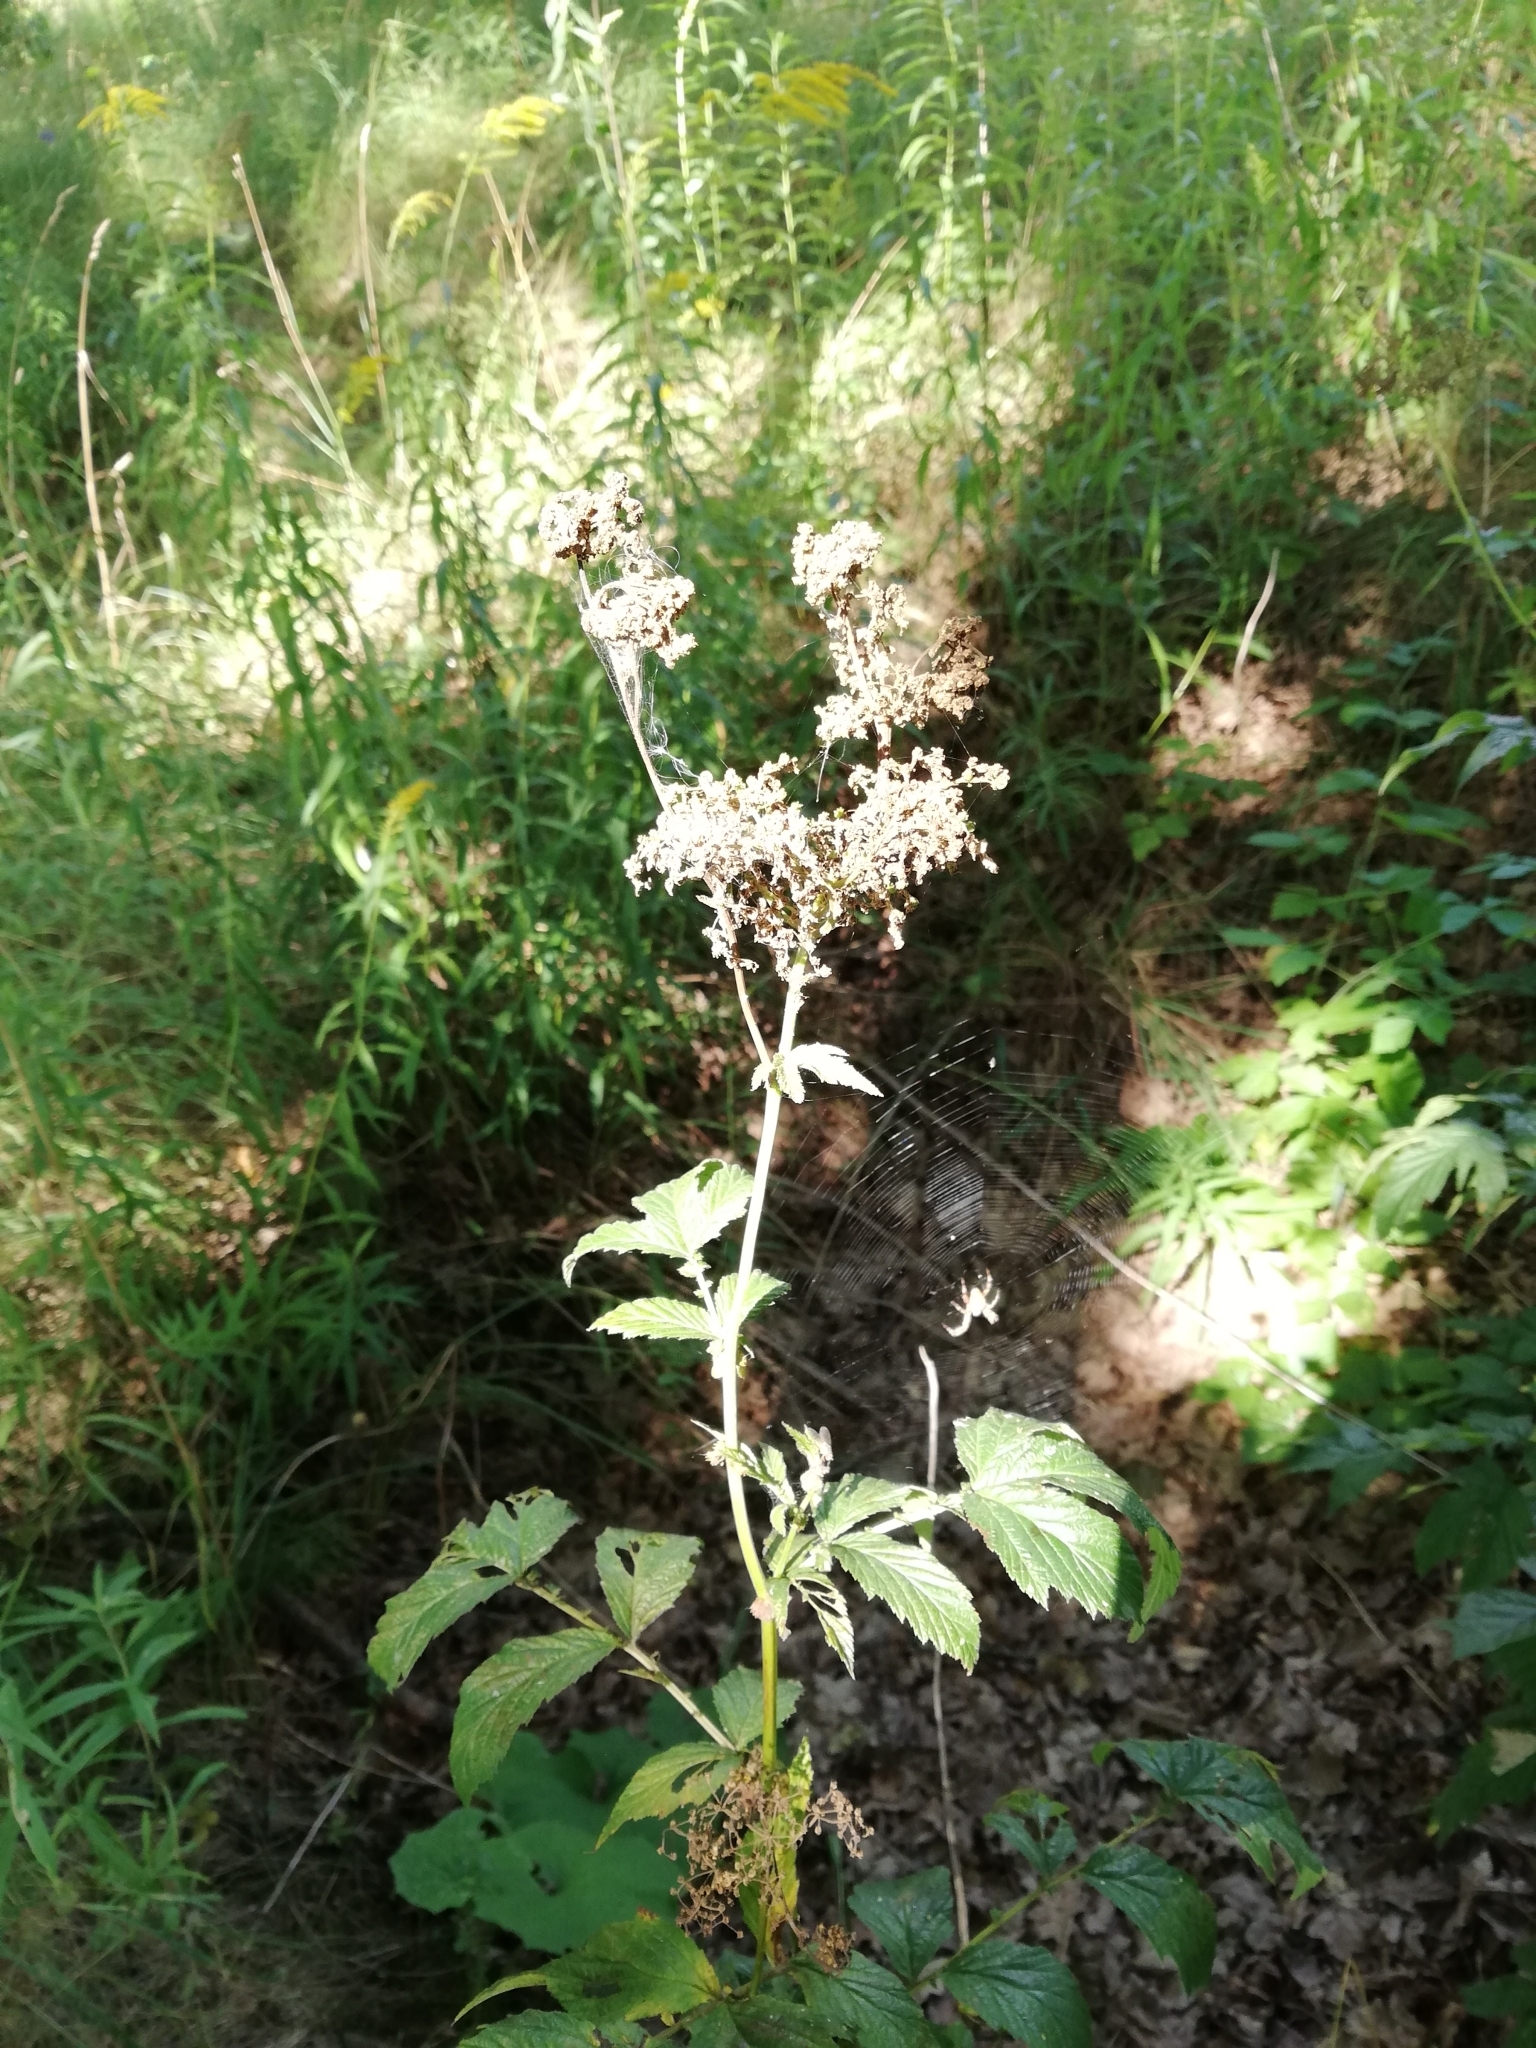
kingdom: Plantae
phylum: Tracheophyta
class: Magnoliopsida
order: Rosales
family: Rosaceae
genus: Filipendula
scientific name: Filipendula ulmaria
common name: Meadowsweet
